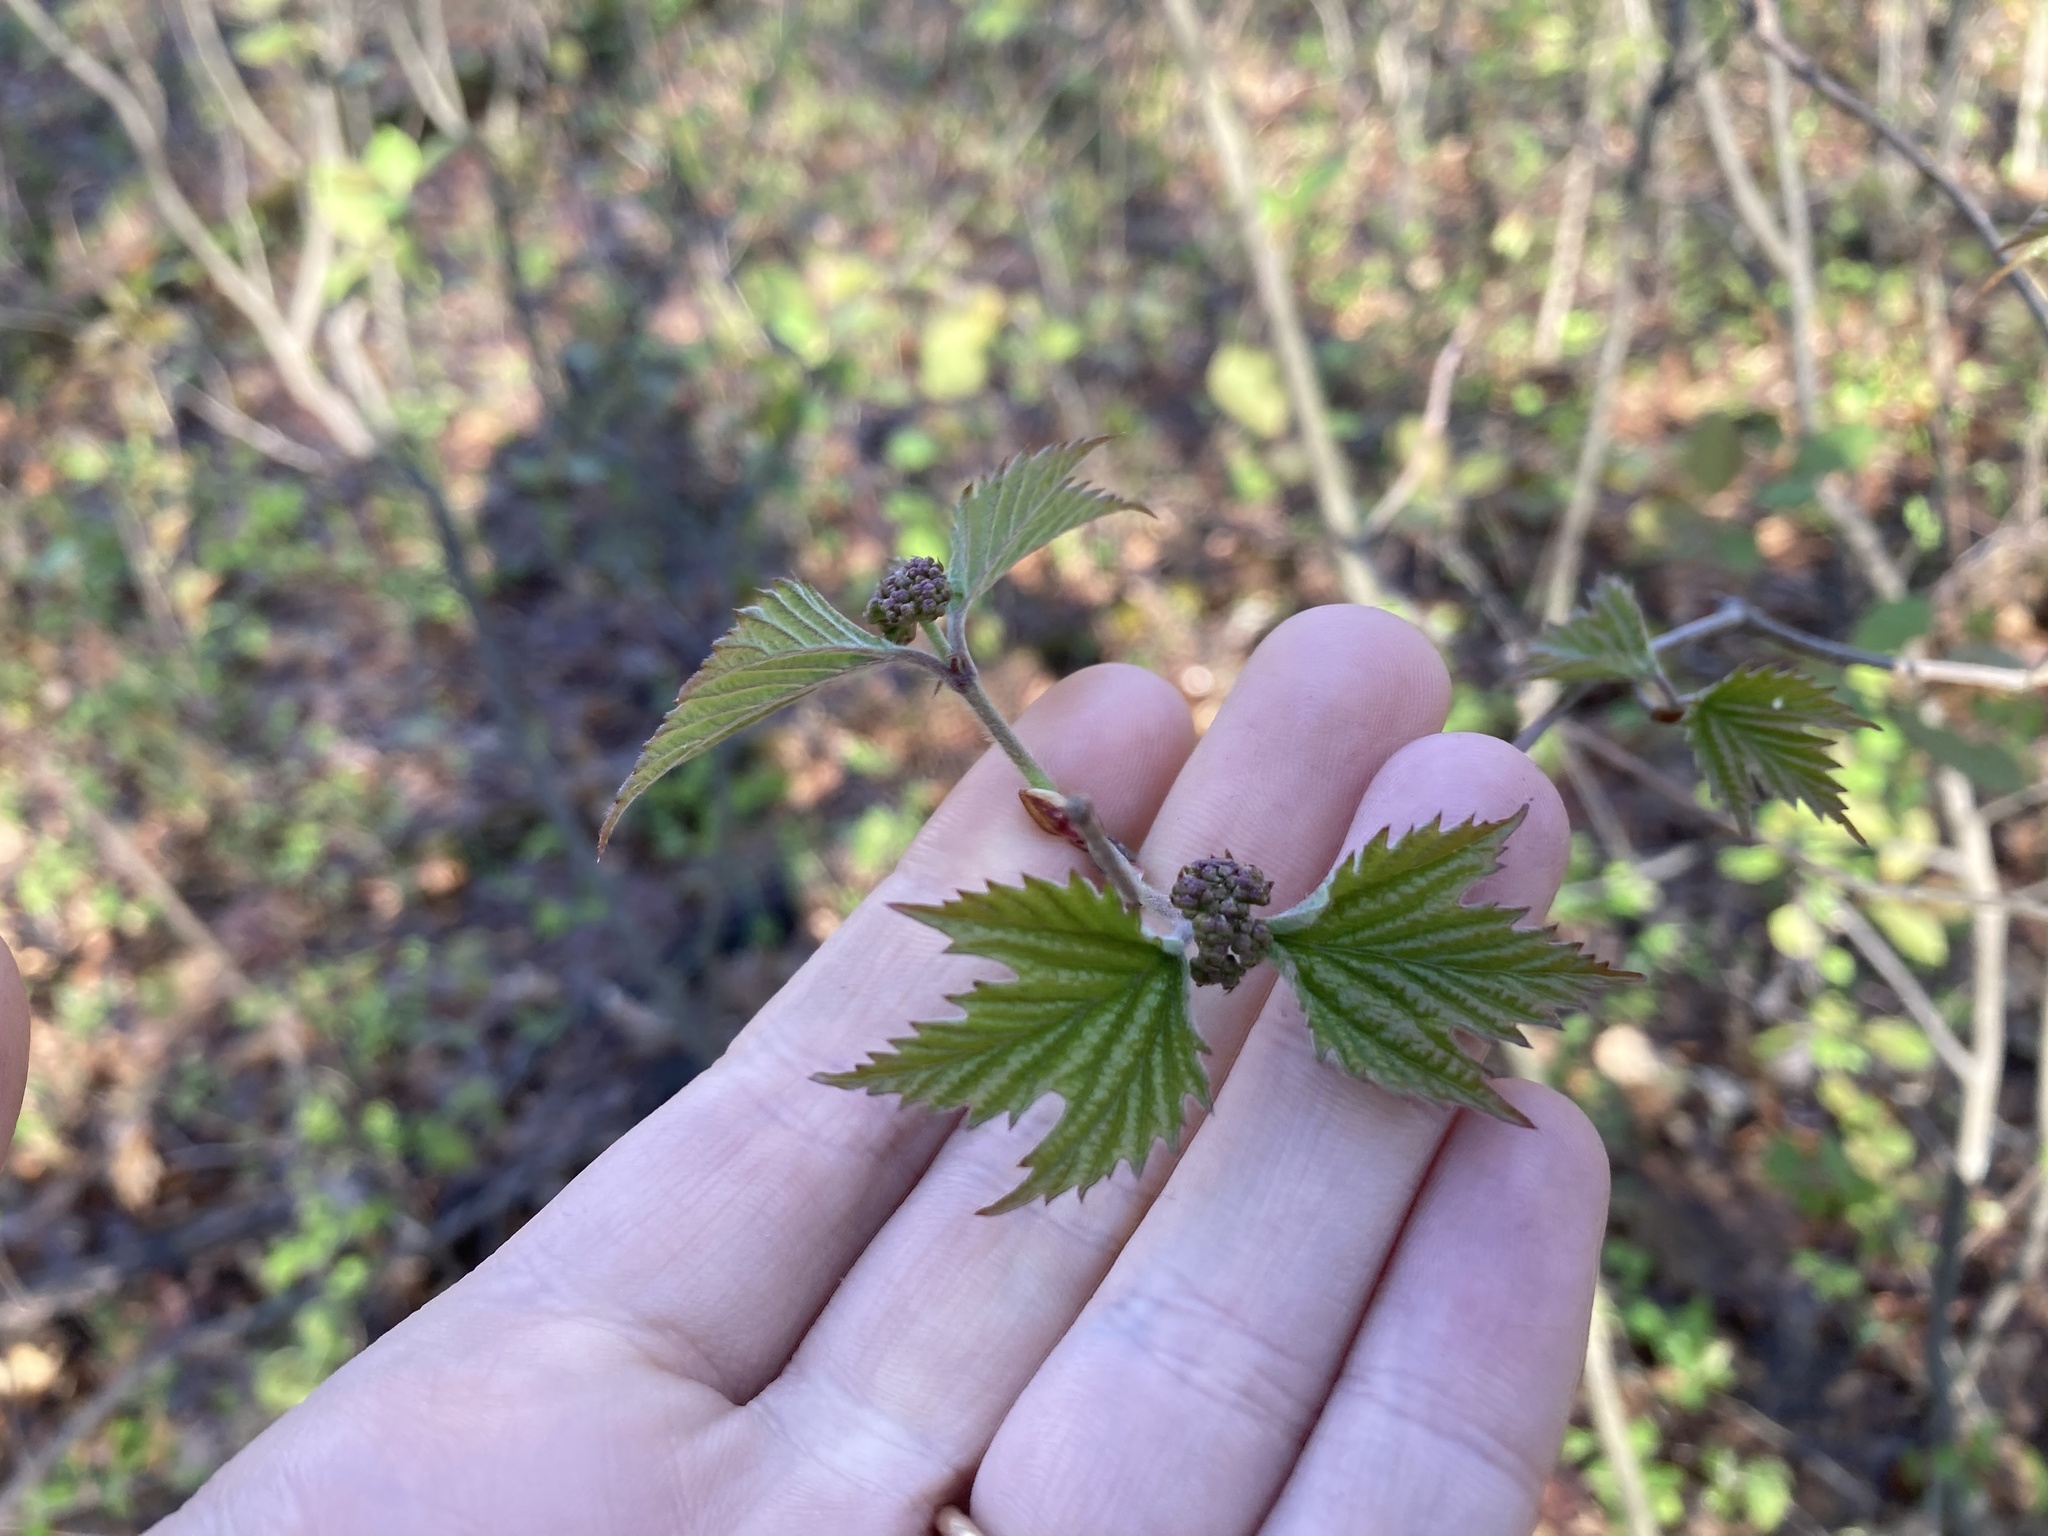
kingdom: Plantae
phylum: Tracheophyta
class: Magnoliopsida
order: Dipsacales
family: Viburnaceae
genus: Viburnum
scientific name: Viburnum acerifolium
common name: Dockmackie
